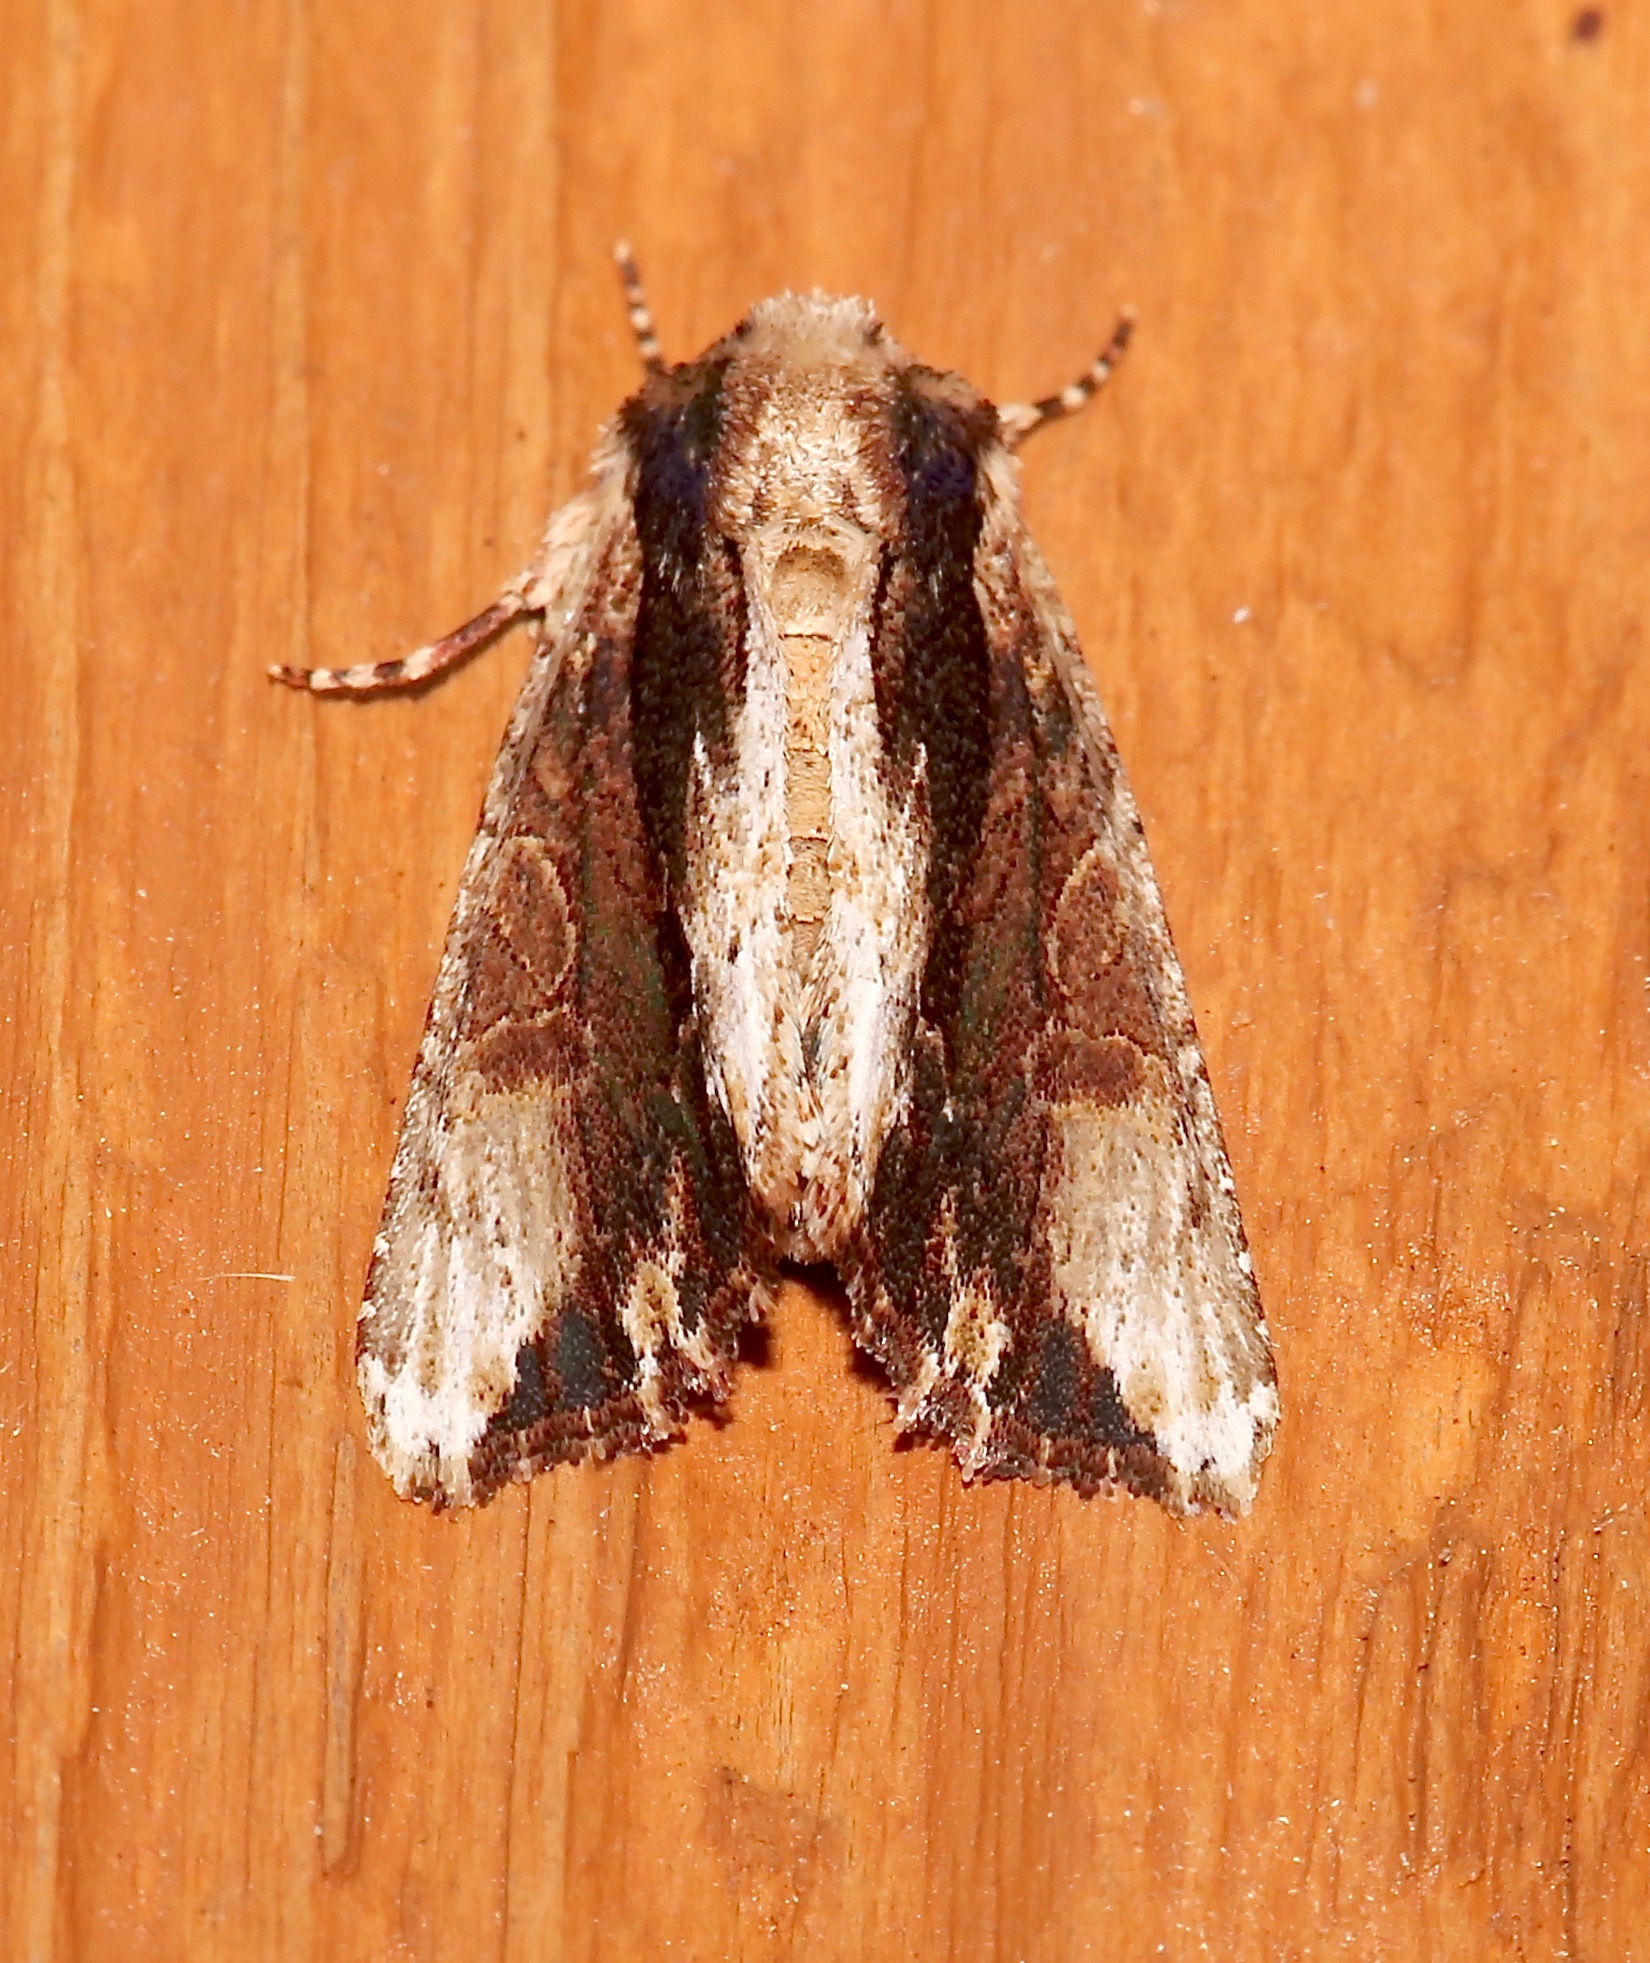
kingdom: Animalia
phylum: Arthropoda
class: Insecta
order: Lepidoptera
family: Noctuidae
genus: Achatia
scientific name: Achatia mucens
